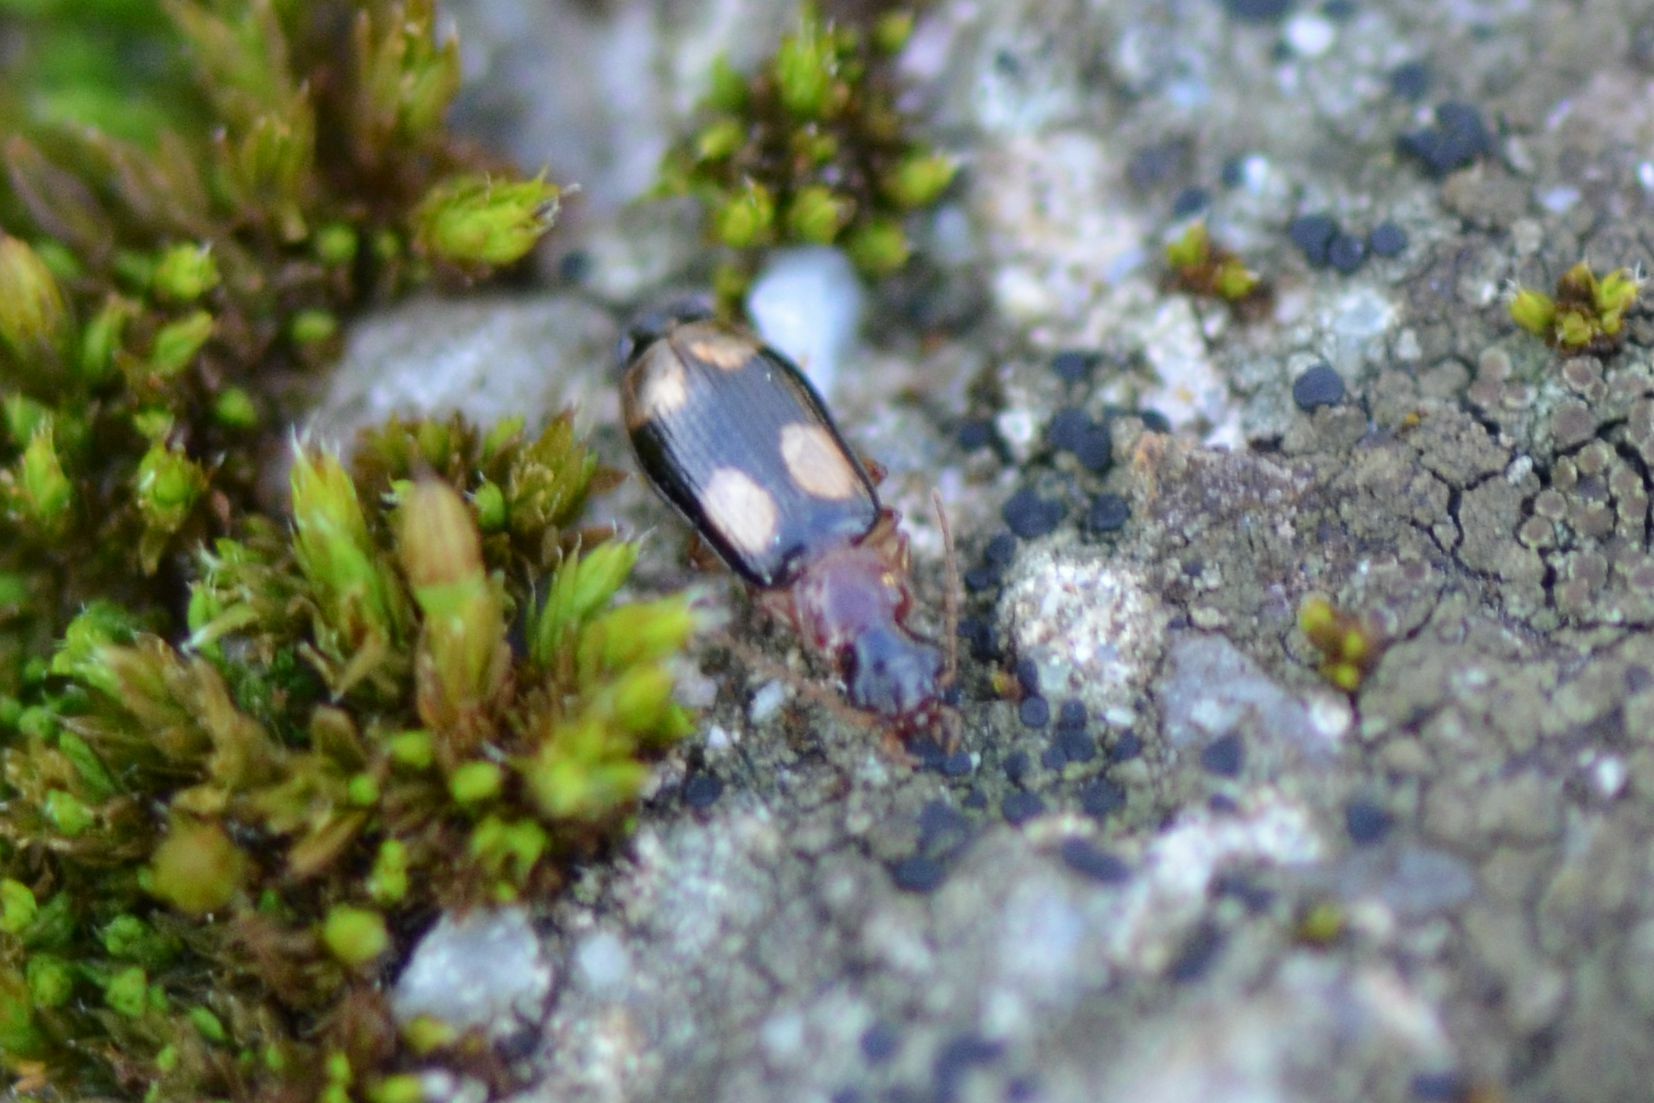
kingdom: Animalia
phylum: Arthropoda
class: Insecta
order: Coleoptera
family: Carabidae
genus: Dromius
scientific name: Dromius quadrimaculatus
